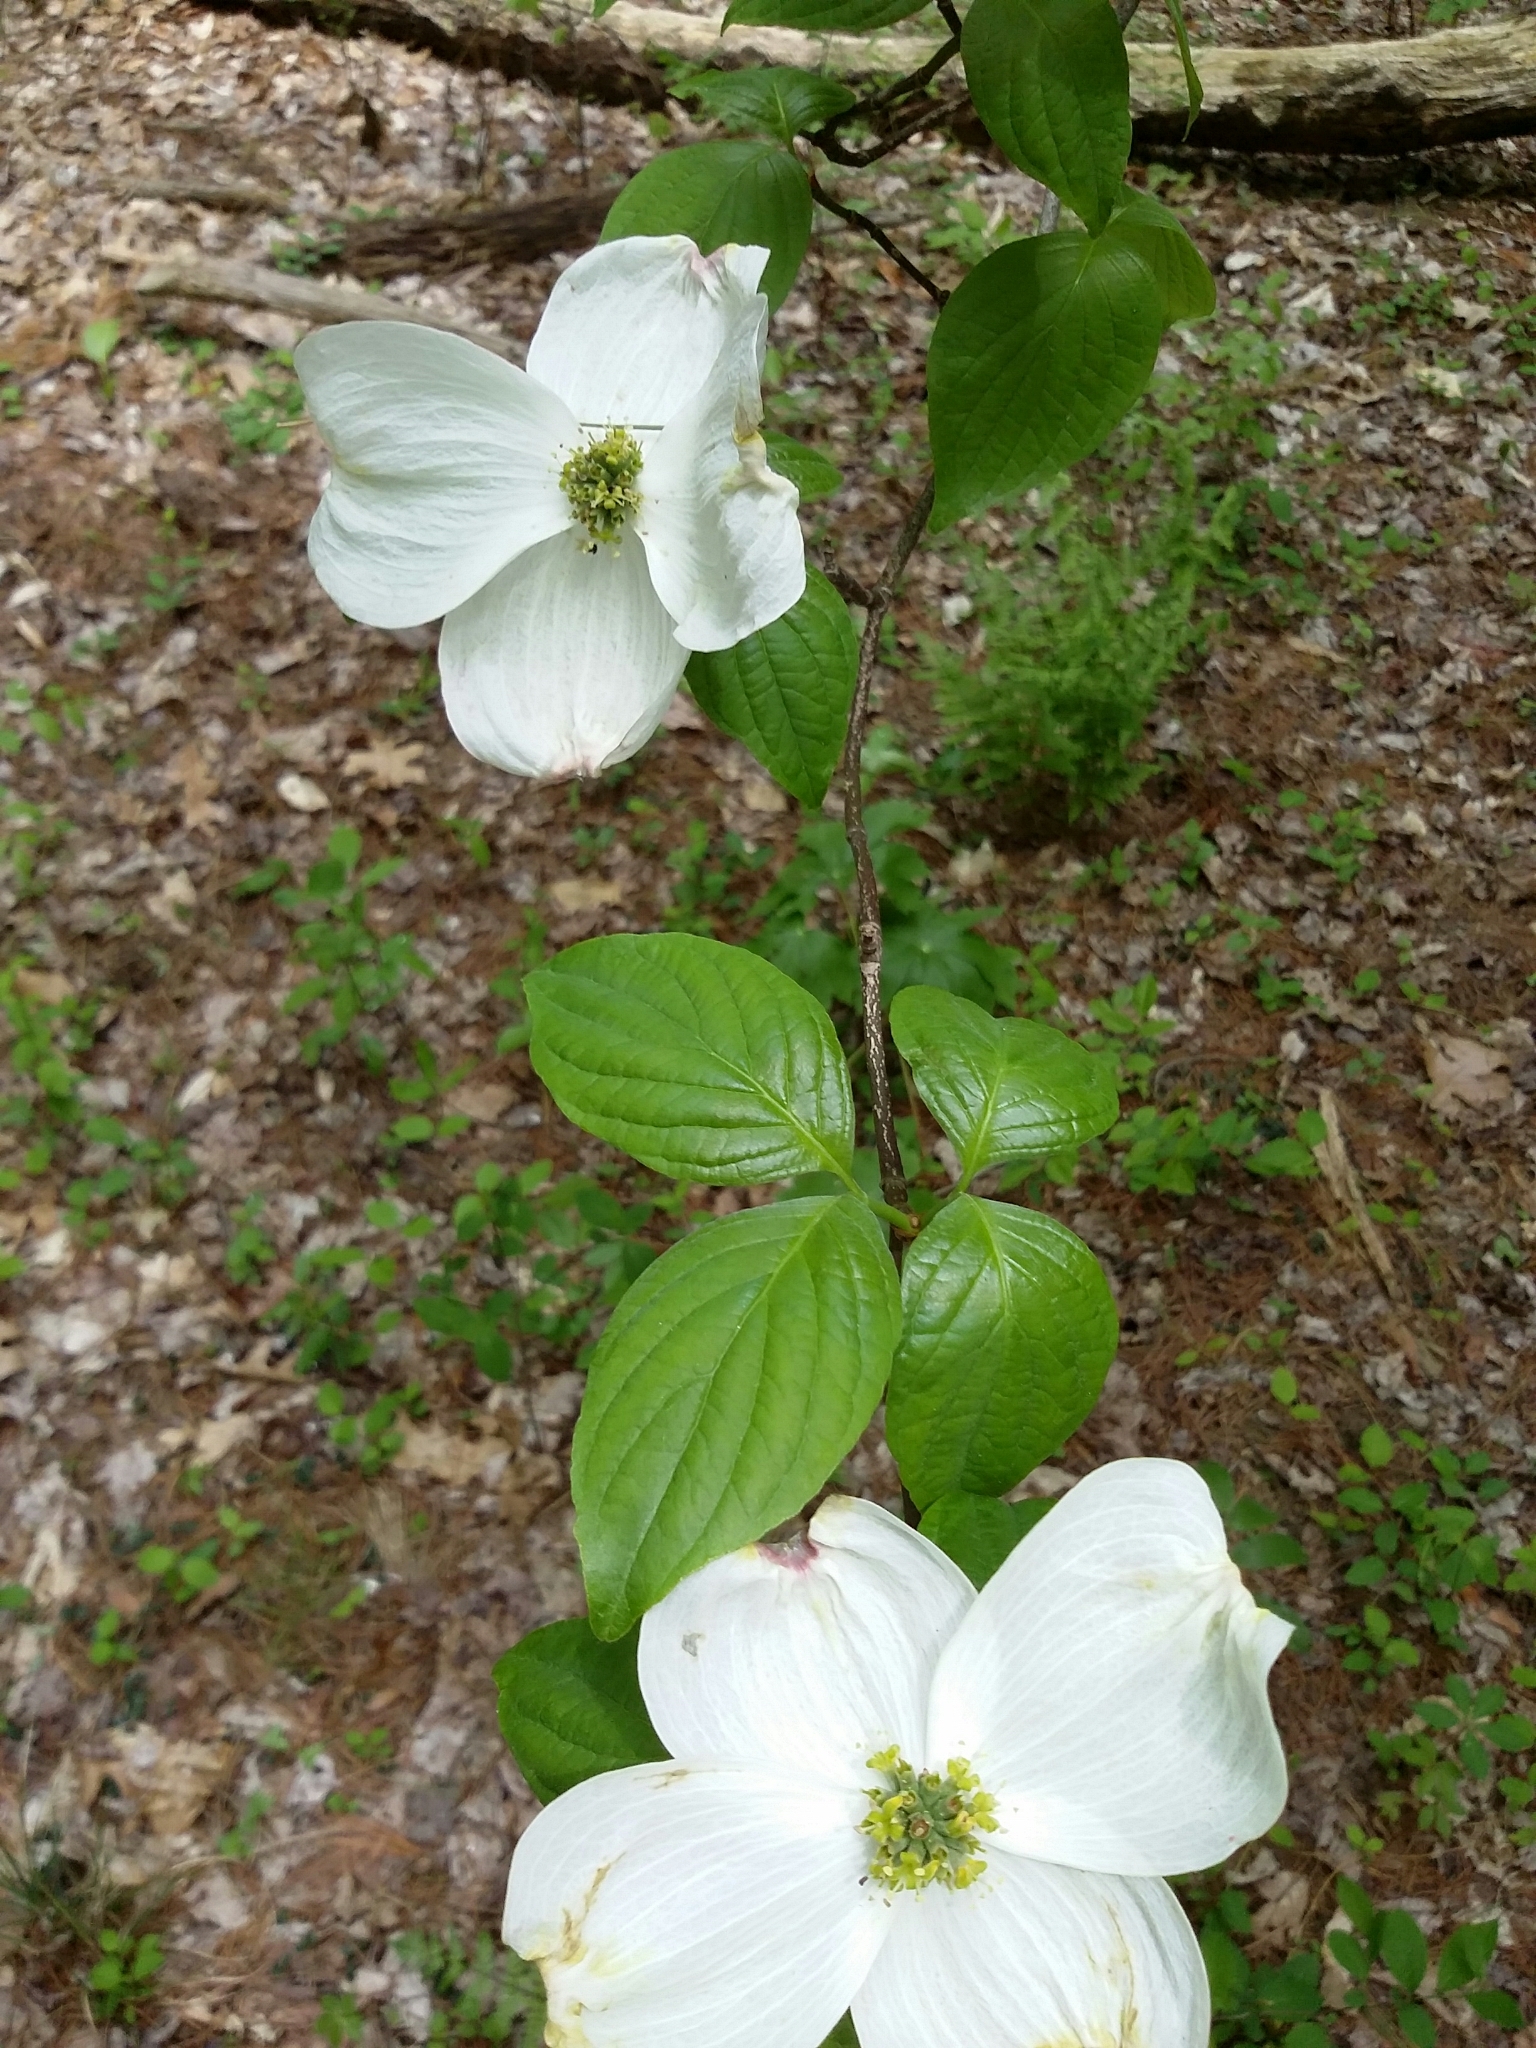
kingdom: Plantae
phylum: Tracheophyta
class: Magnoliopsida
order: Cornales
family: Cornaceae
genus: Cornus
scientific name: Cornus florida
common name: Flowering dogwood
